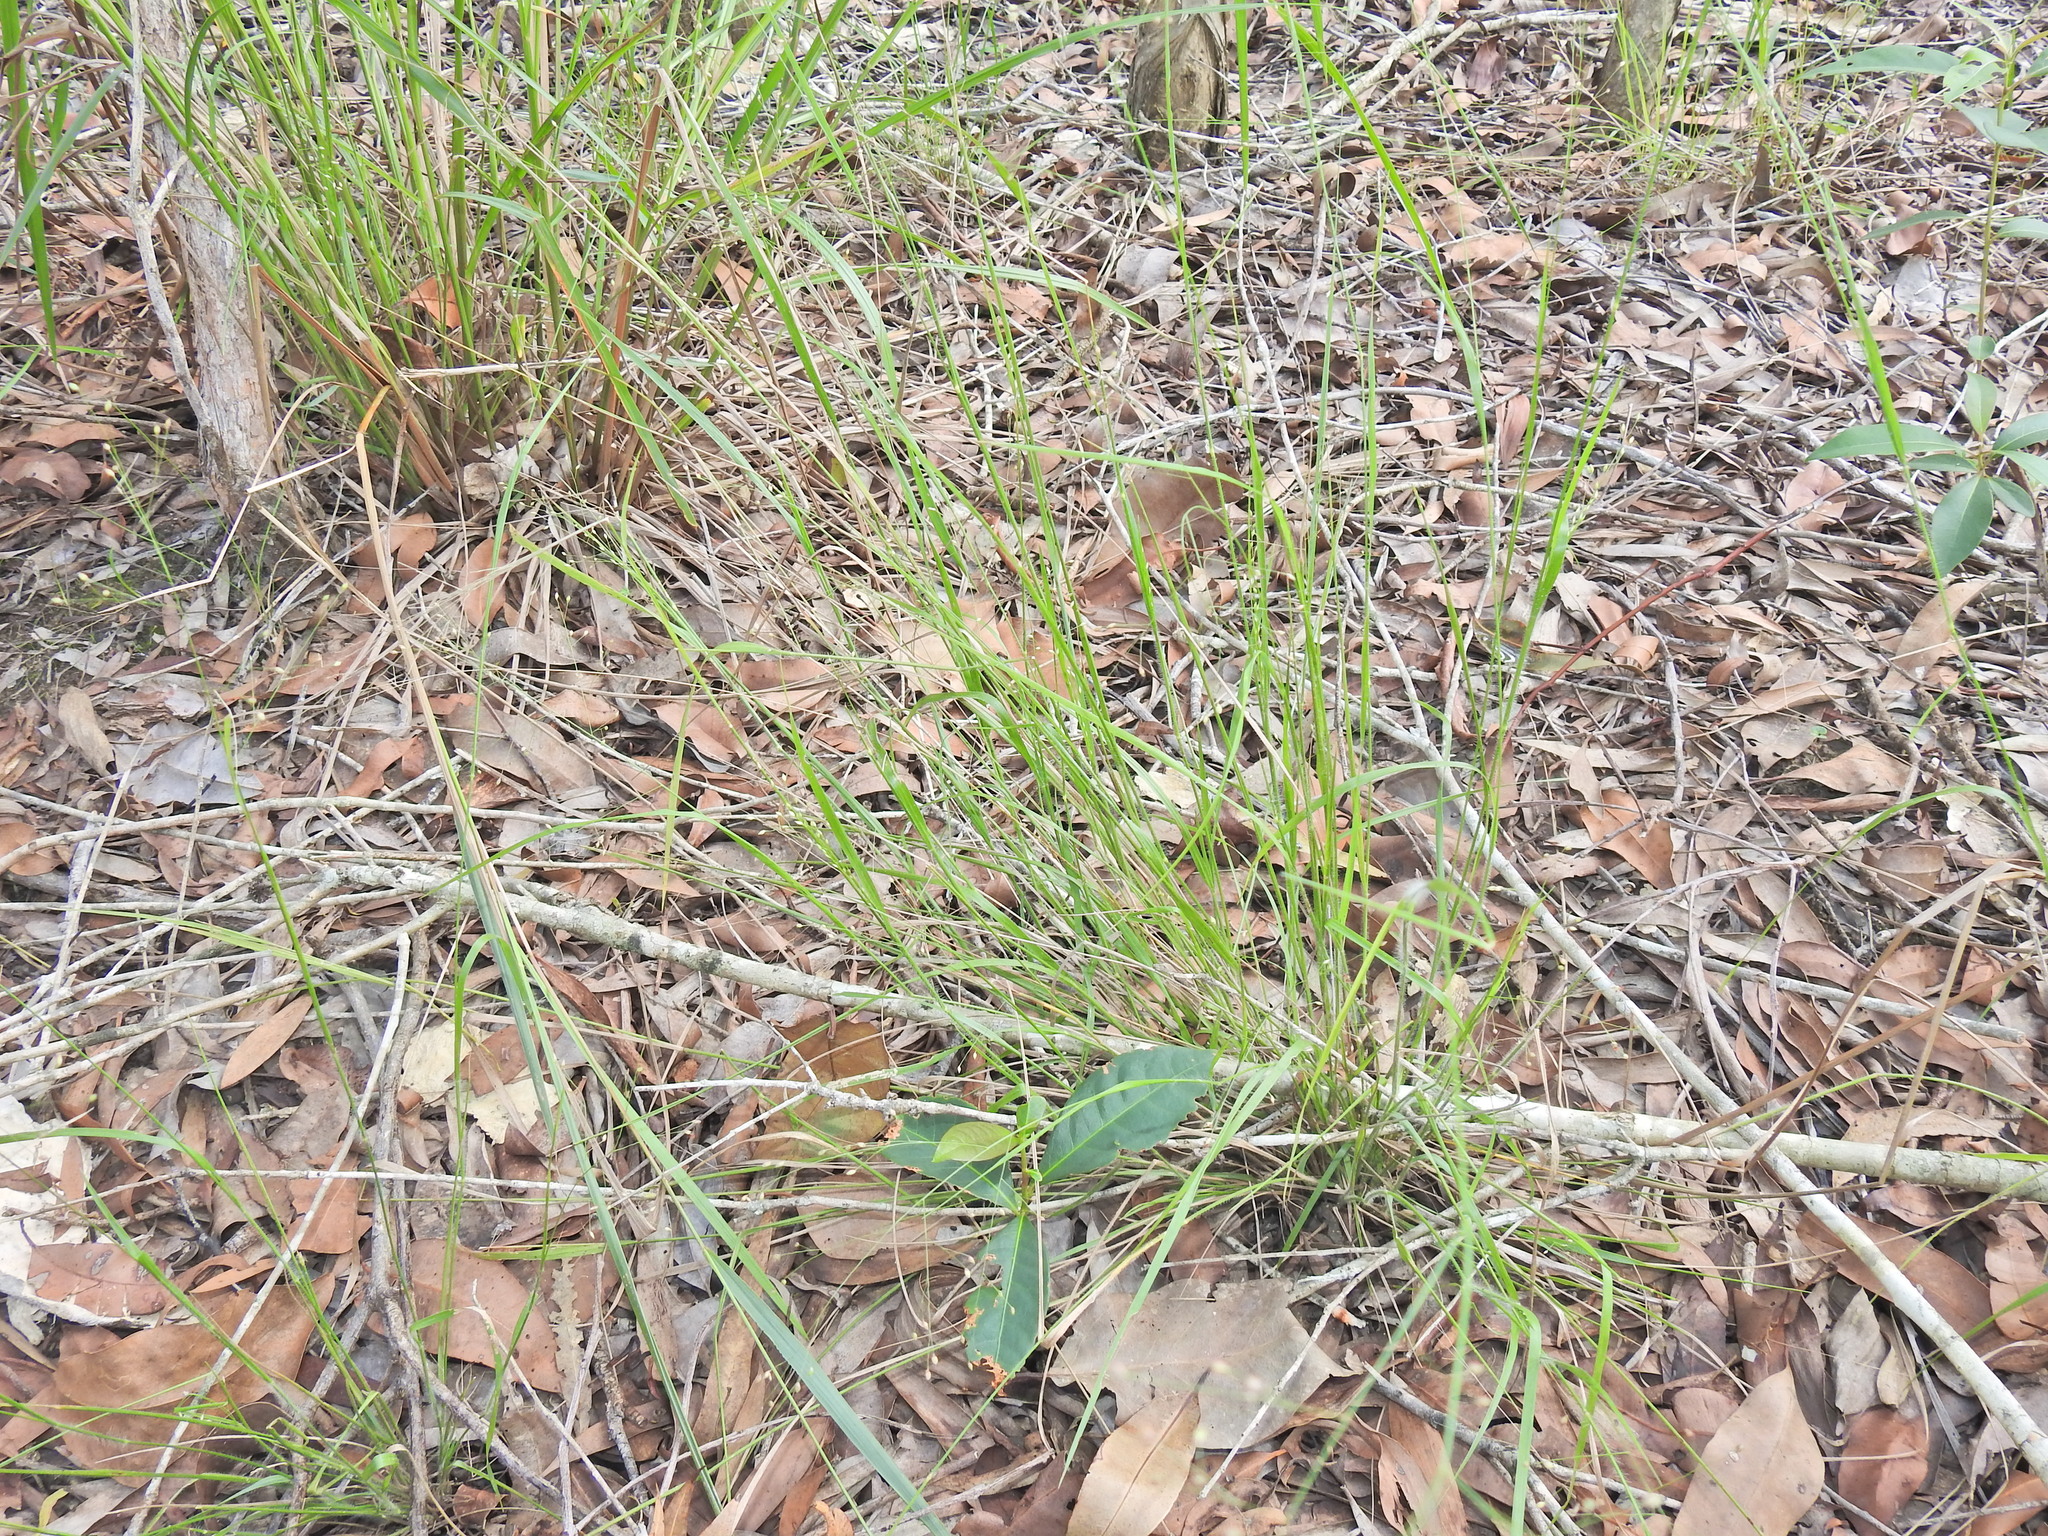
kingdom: Plantae
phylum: Tracheophyta
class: Liliopsida
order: Poales
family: Poaceae
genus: Panicum
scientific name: Panicum effusum
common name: Hairy panic grass
